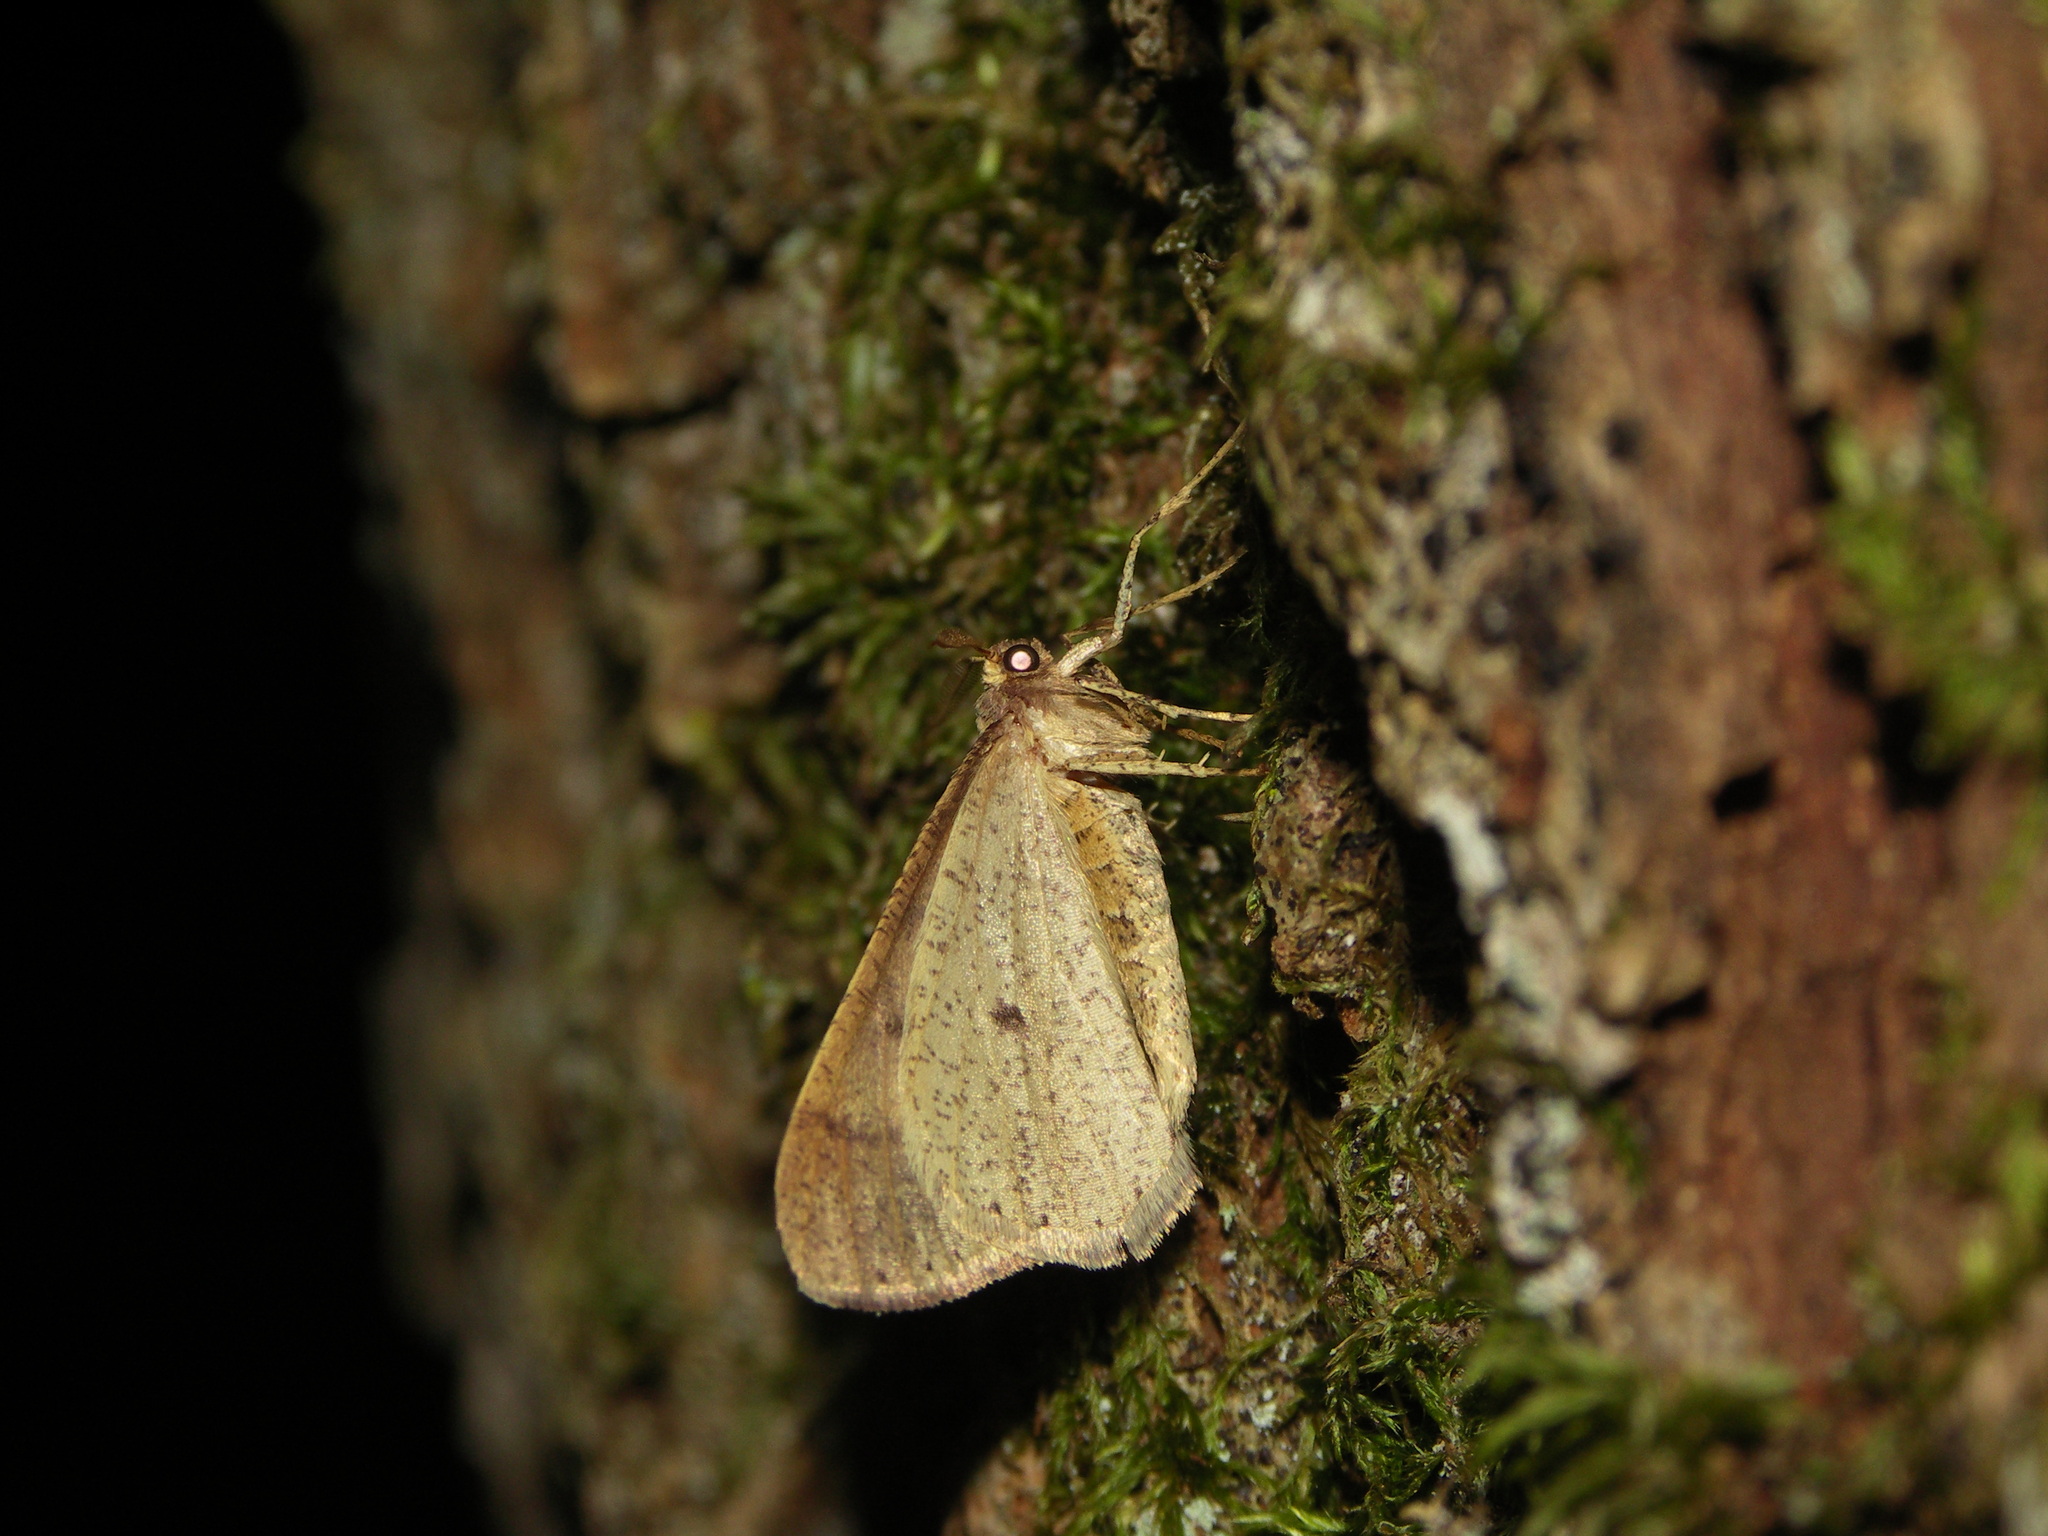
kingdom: Animalia
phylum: Arthropoda
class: Insecta
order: Lepidoptera
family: Geometridae
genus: Agriopis
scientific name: Agriopis marginaria
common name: Dotted border
